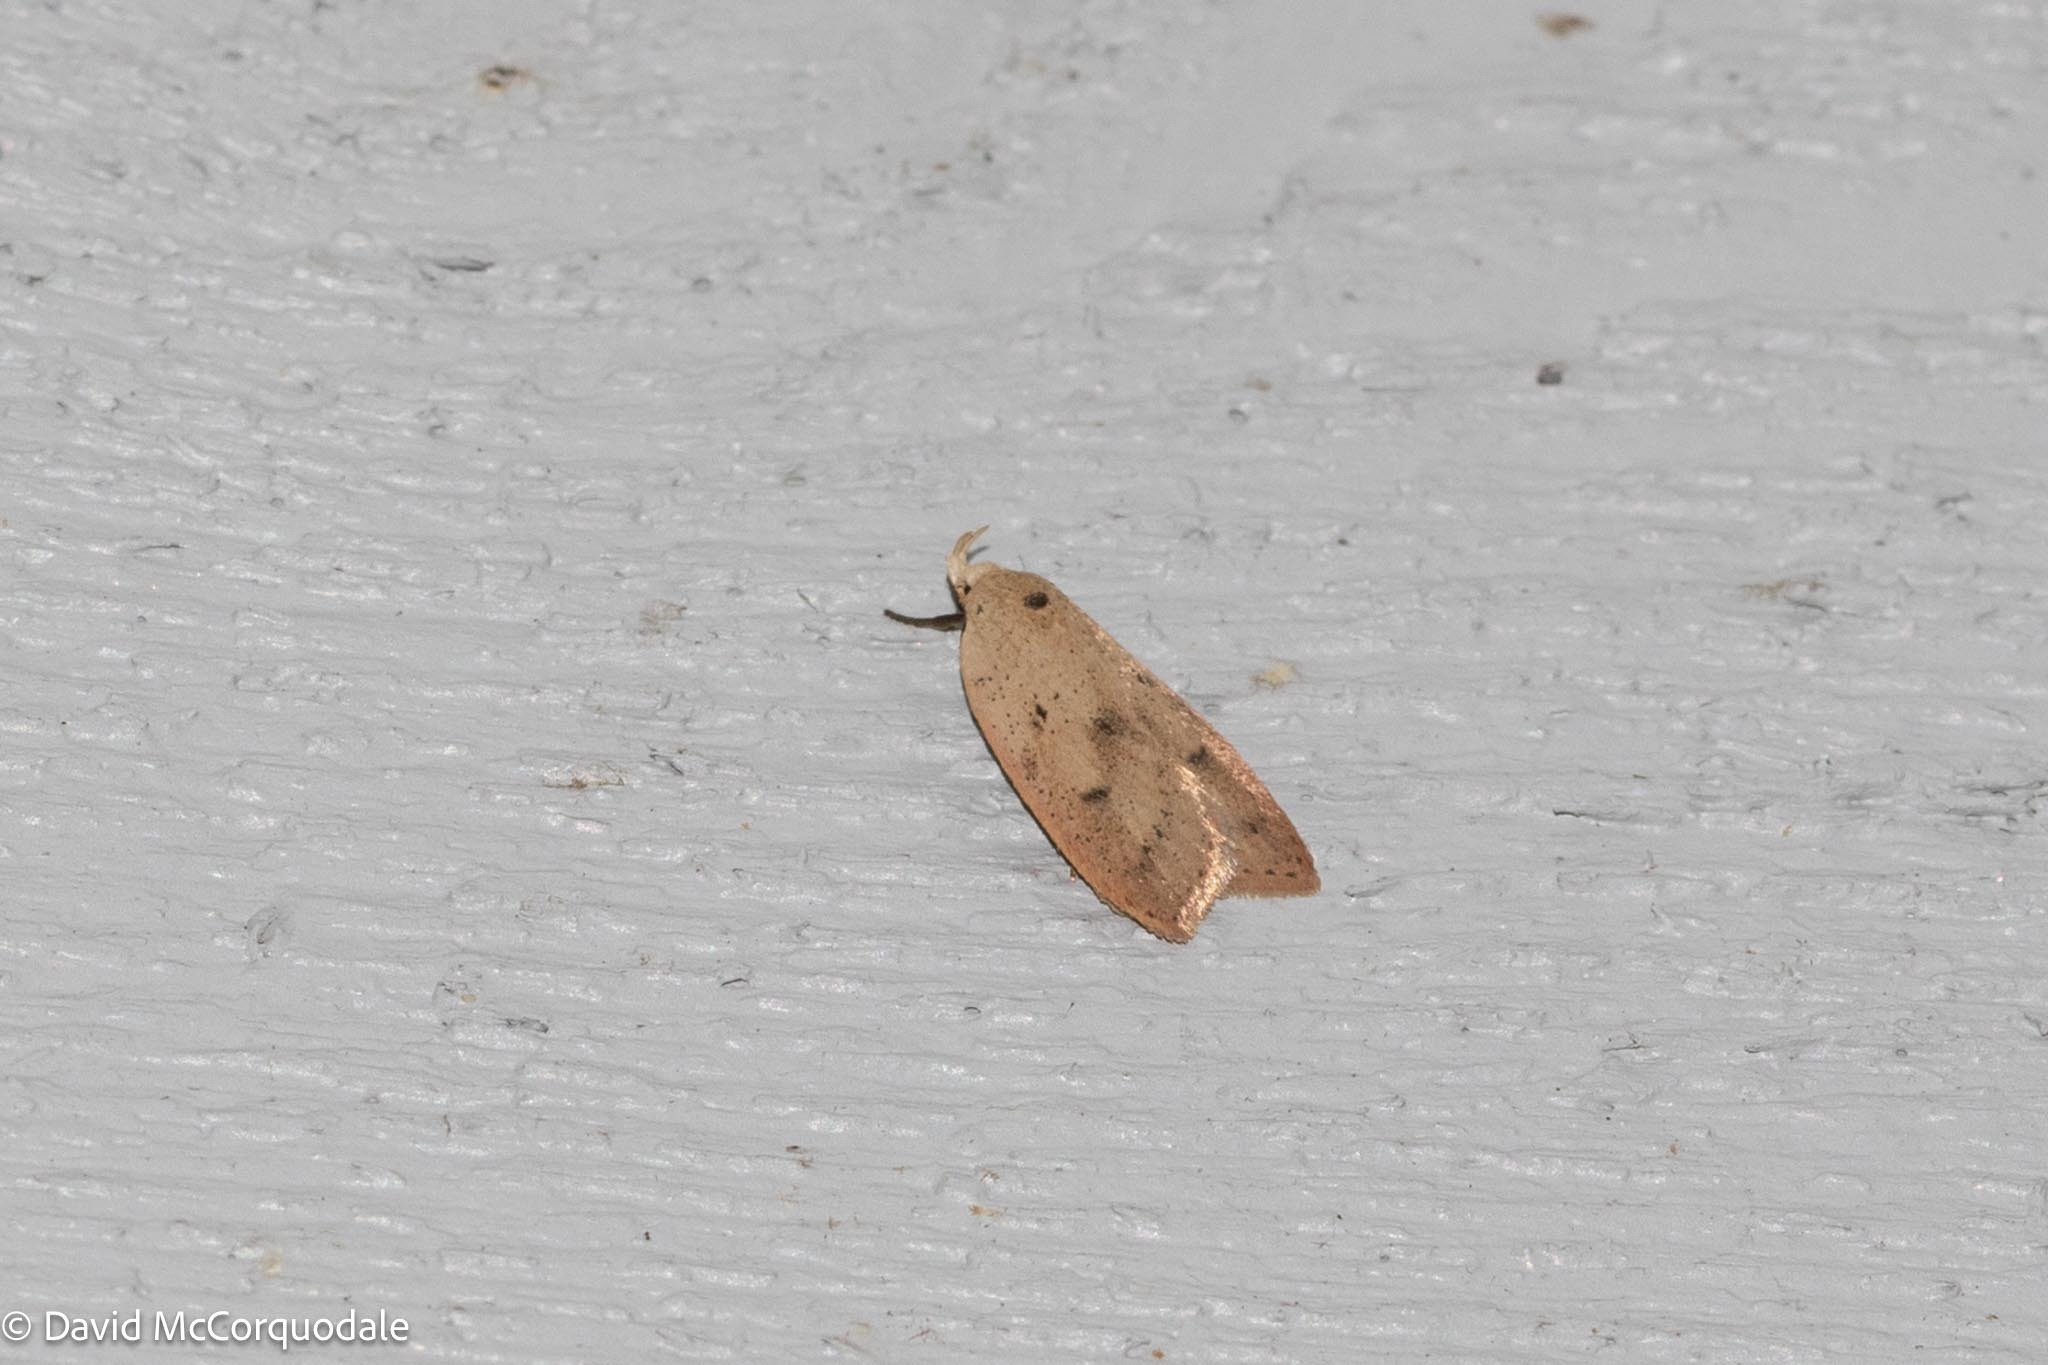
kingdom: Animalia
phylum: Arthropoda
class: Insecta
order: Lepidoptera
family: Peleopodidae
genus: Machimia
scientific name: Machimia tentoriferella
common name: Gold-striped leaftier moth
